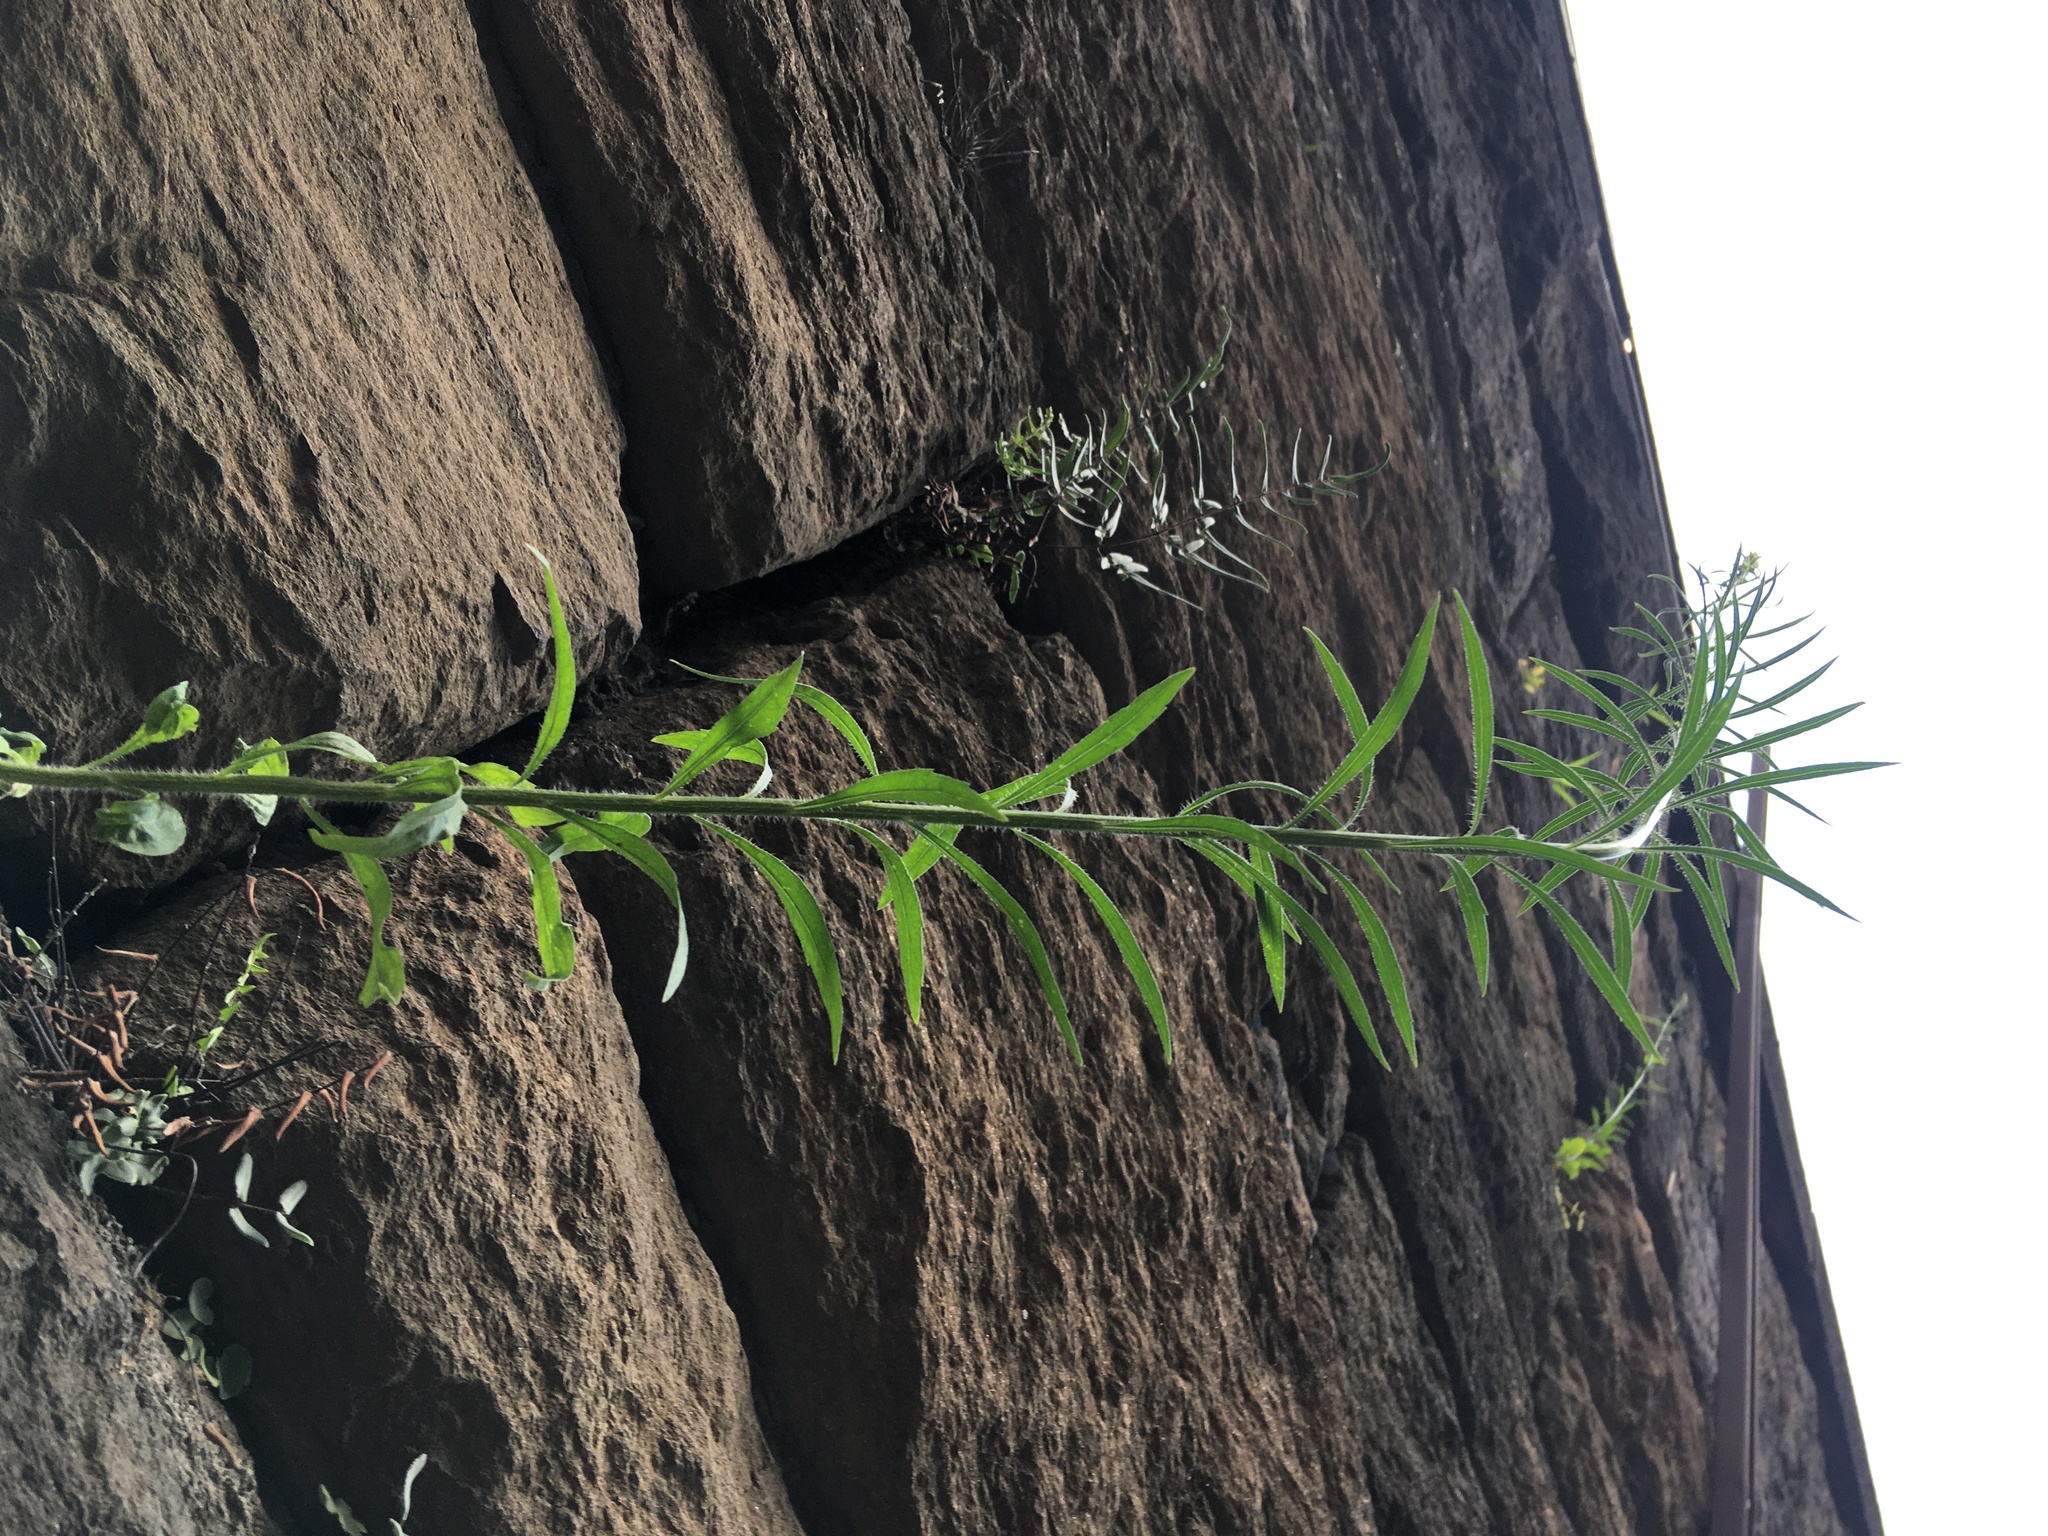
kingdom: Plantae
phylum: Tracheophyta
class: Magnoliopsida
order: Asterales
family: Asteraceae
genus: Erigeron
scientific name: Erigeron canadensis
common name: Canadian fleabane
